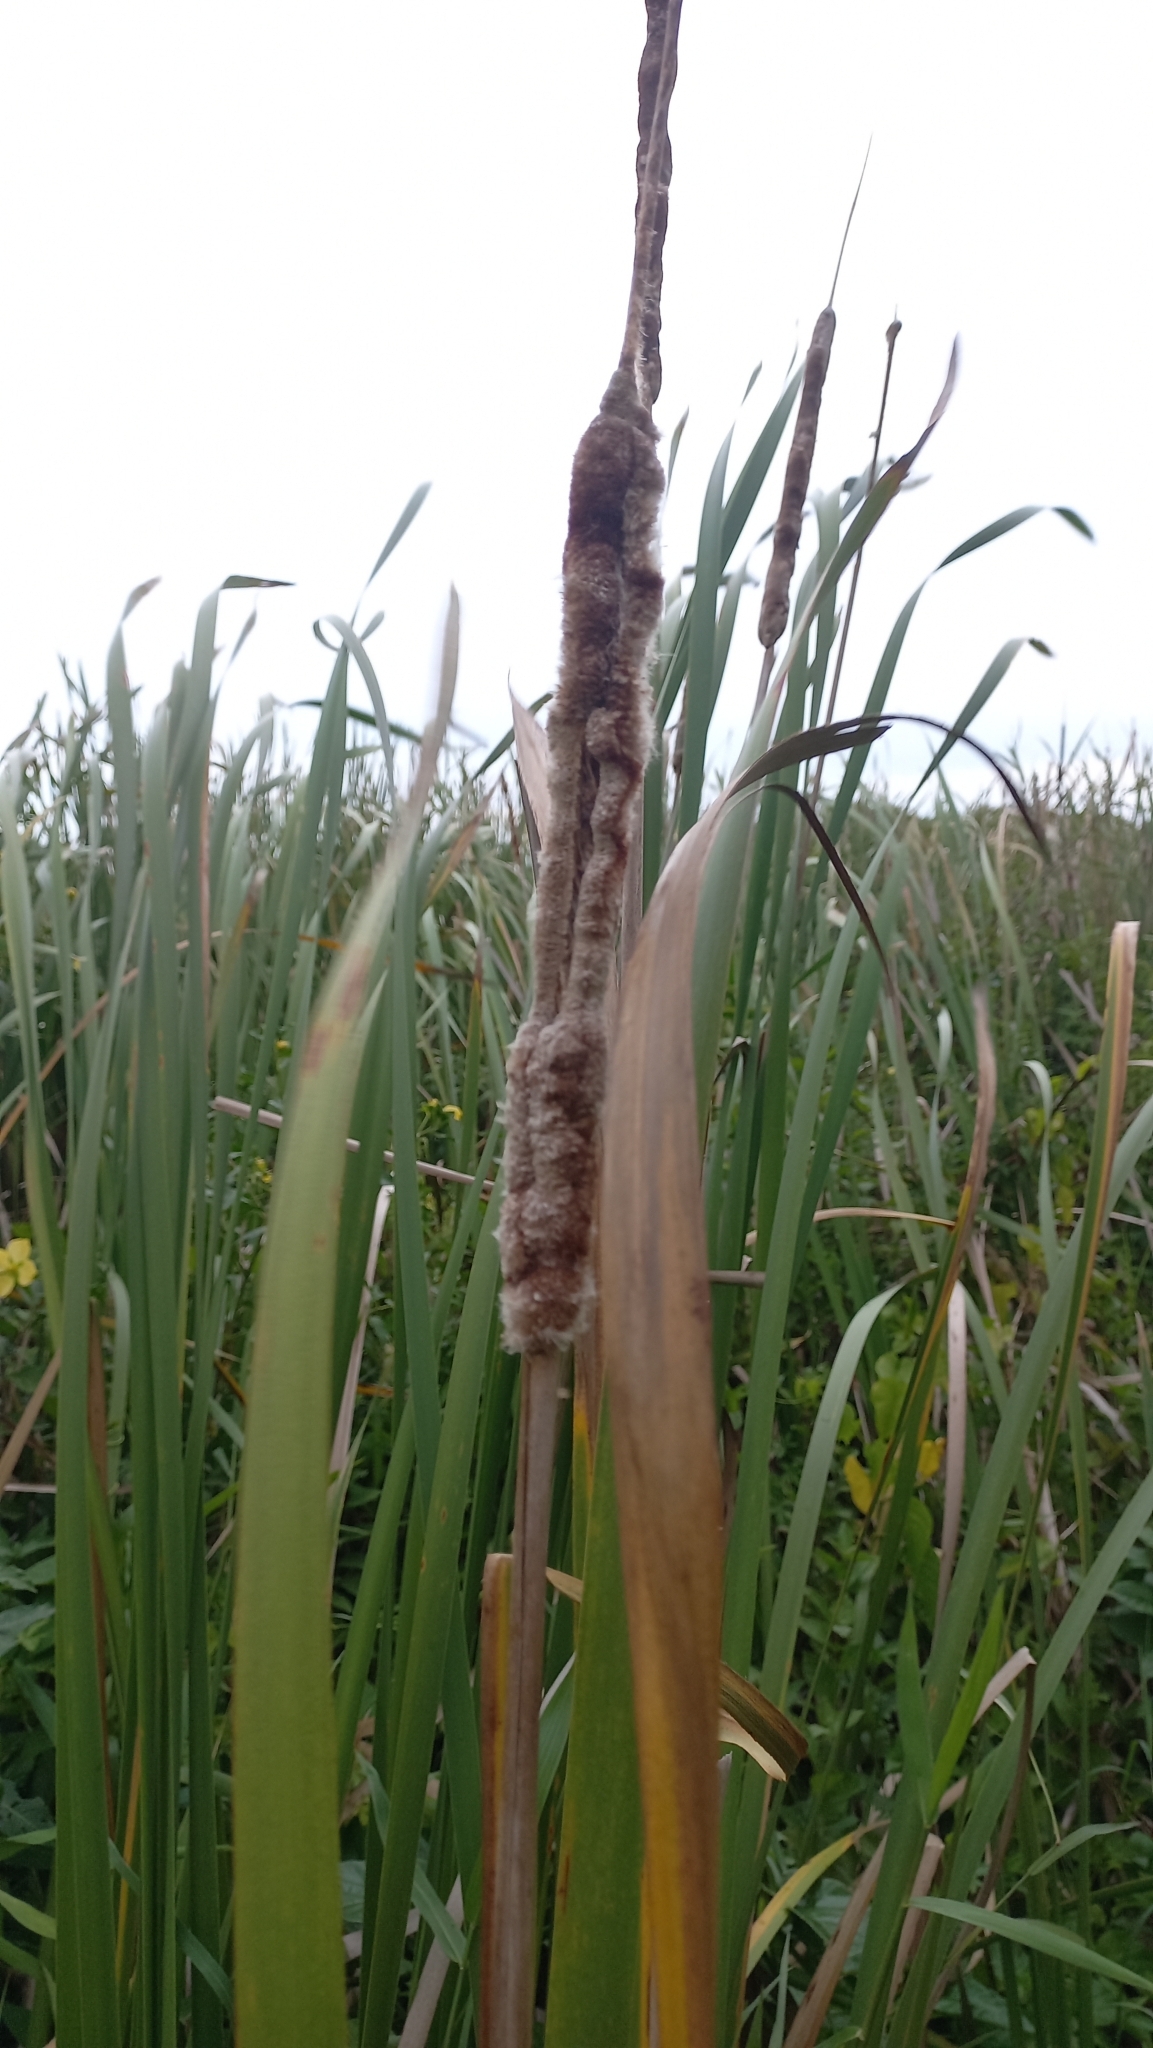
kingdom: Plantae
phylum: Tracheophyta
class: Liliopsida
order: Poales
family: Typhaceae
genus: Typha
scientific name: Typha domingensis
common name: Southern cattail
